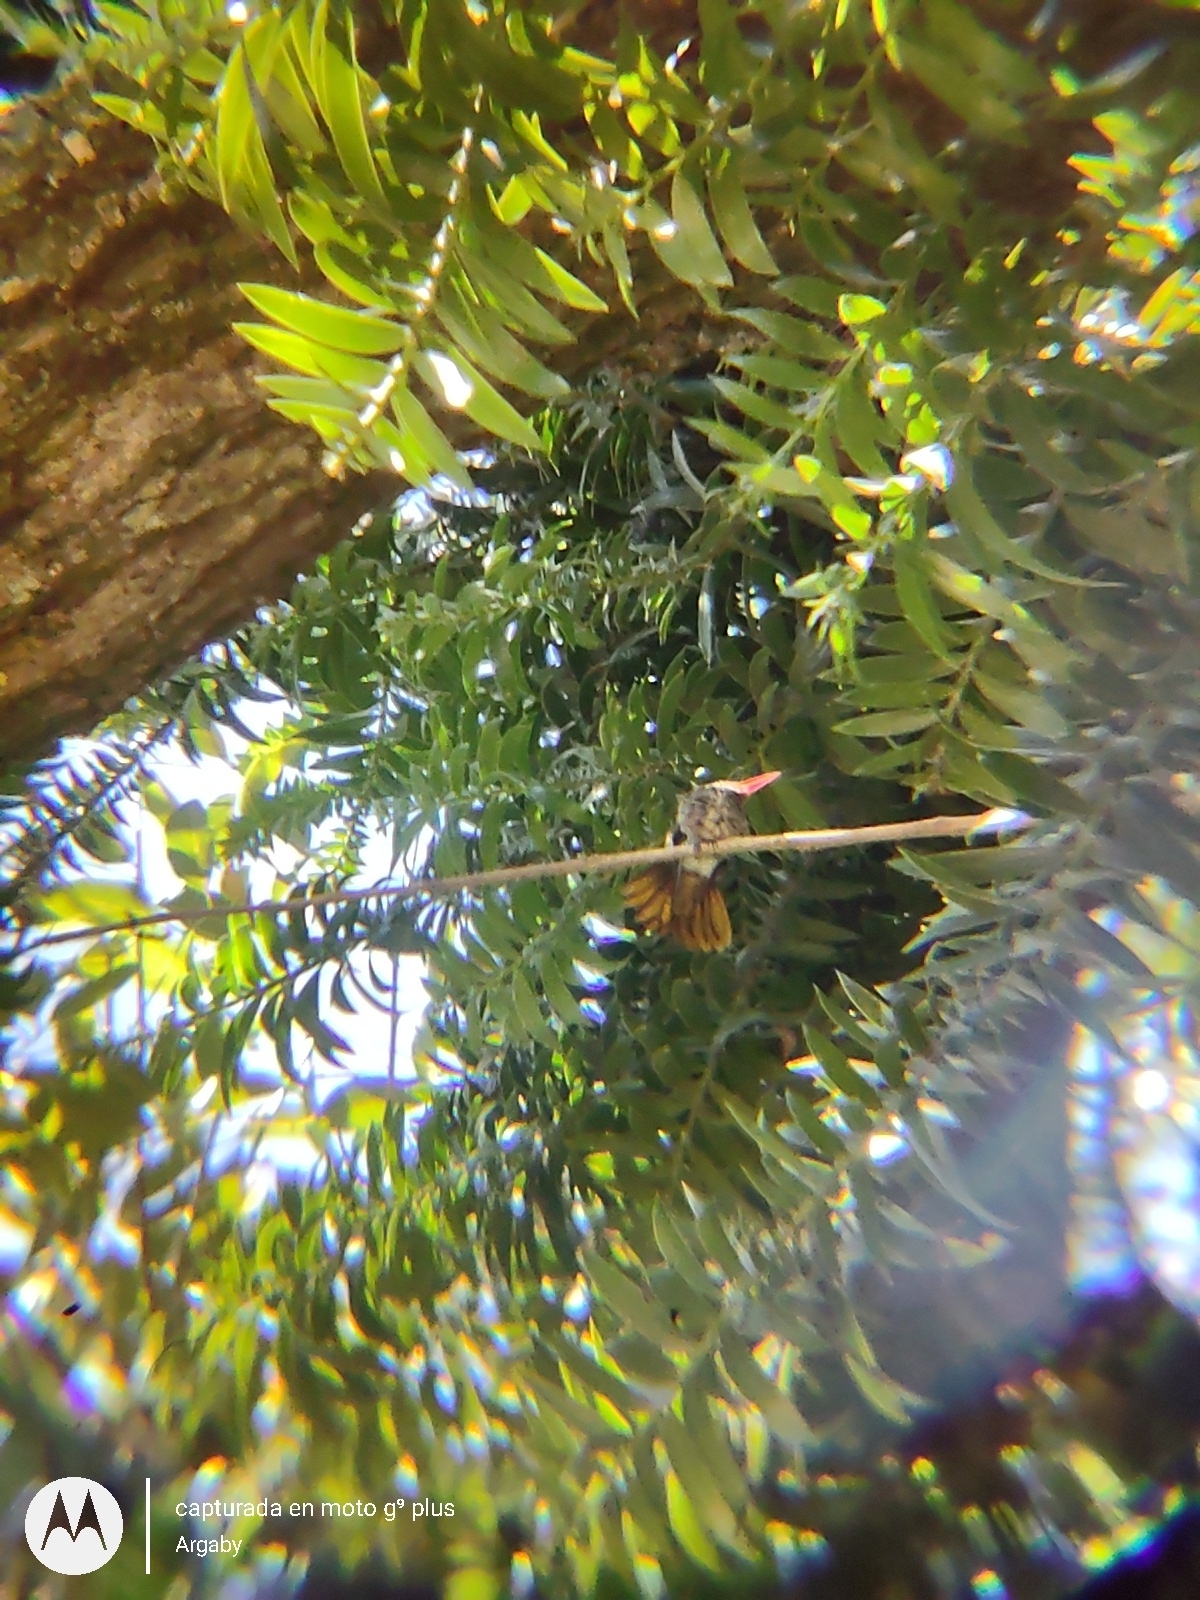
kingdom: Animalia
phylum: Chordata
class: Aves
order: Apodiformes
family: Trochilidae
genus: Hylocharis
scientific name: Hylocharis chrysura
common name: Gilded sapphire
